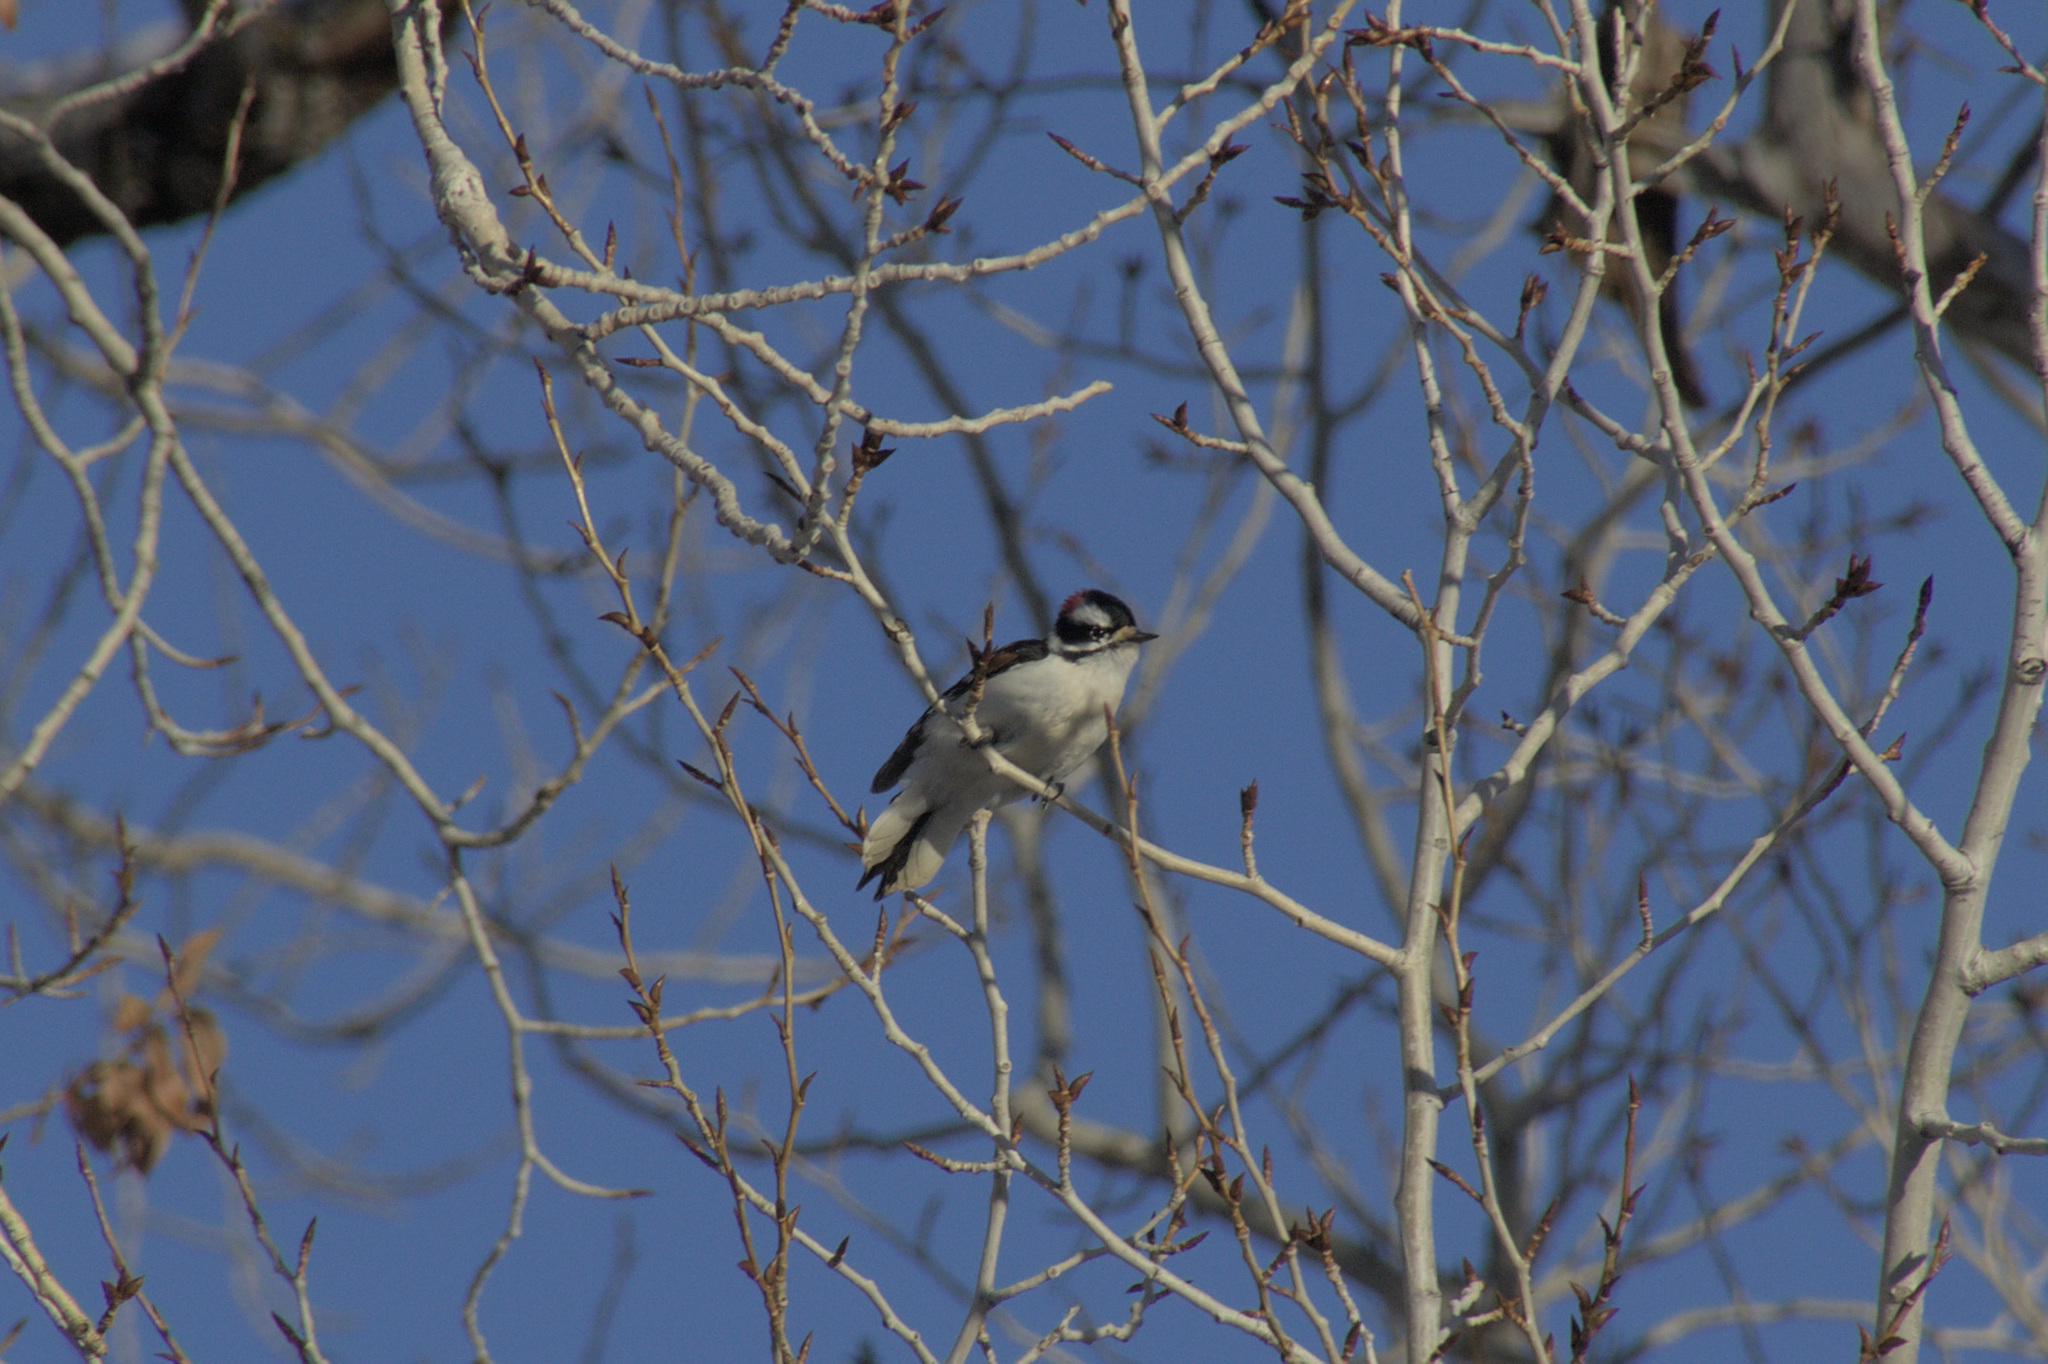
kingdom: Animalia
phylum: Chordata
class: Aves
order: Piciformes
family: Picidae
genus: Dryobates
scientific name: Dryobates pubescens
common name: Downy woodpecker
